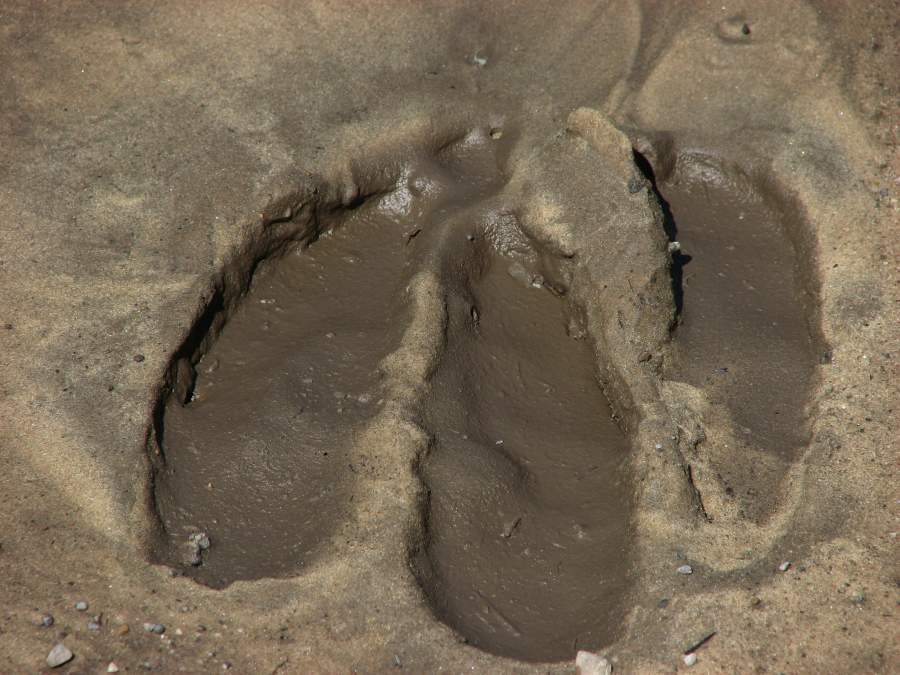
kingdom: Animalia
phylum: Chordata
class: Mammalia
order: Artiodactyla
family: Cervidae
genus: Alces
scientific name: Alces alces
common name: Moose
